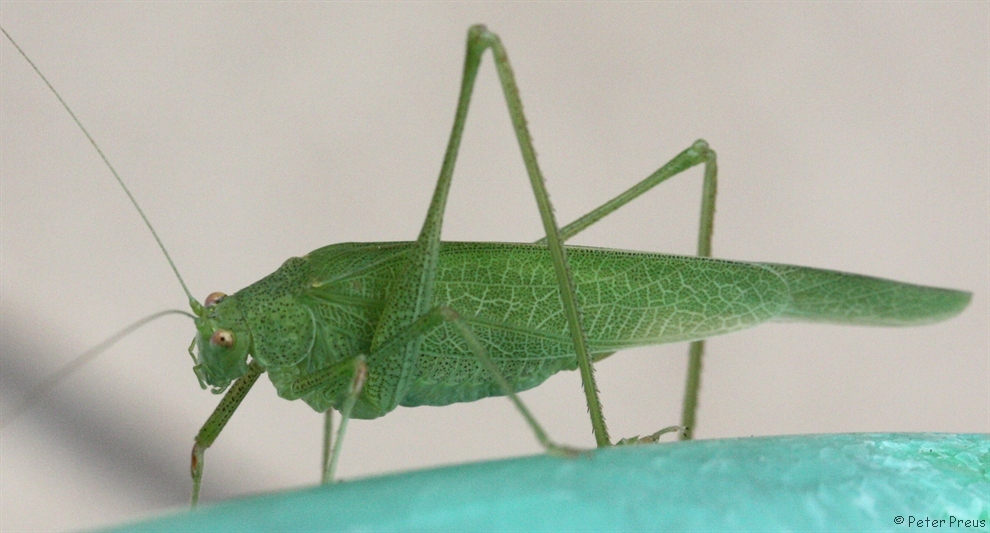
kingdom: Animalia
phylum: Arthropoda
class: Insecta
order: Orthoptera
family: Tettigoniidae
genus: Phaneroptera
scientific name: Phaneroptera nana
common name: Southern sickle bush-cricket
